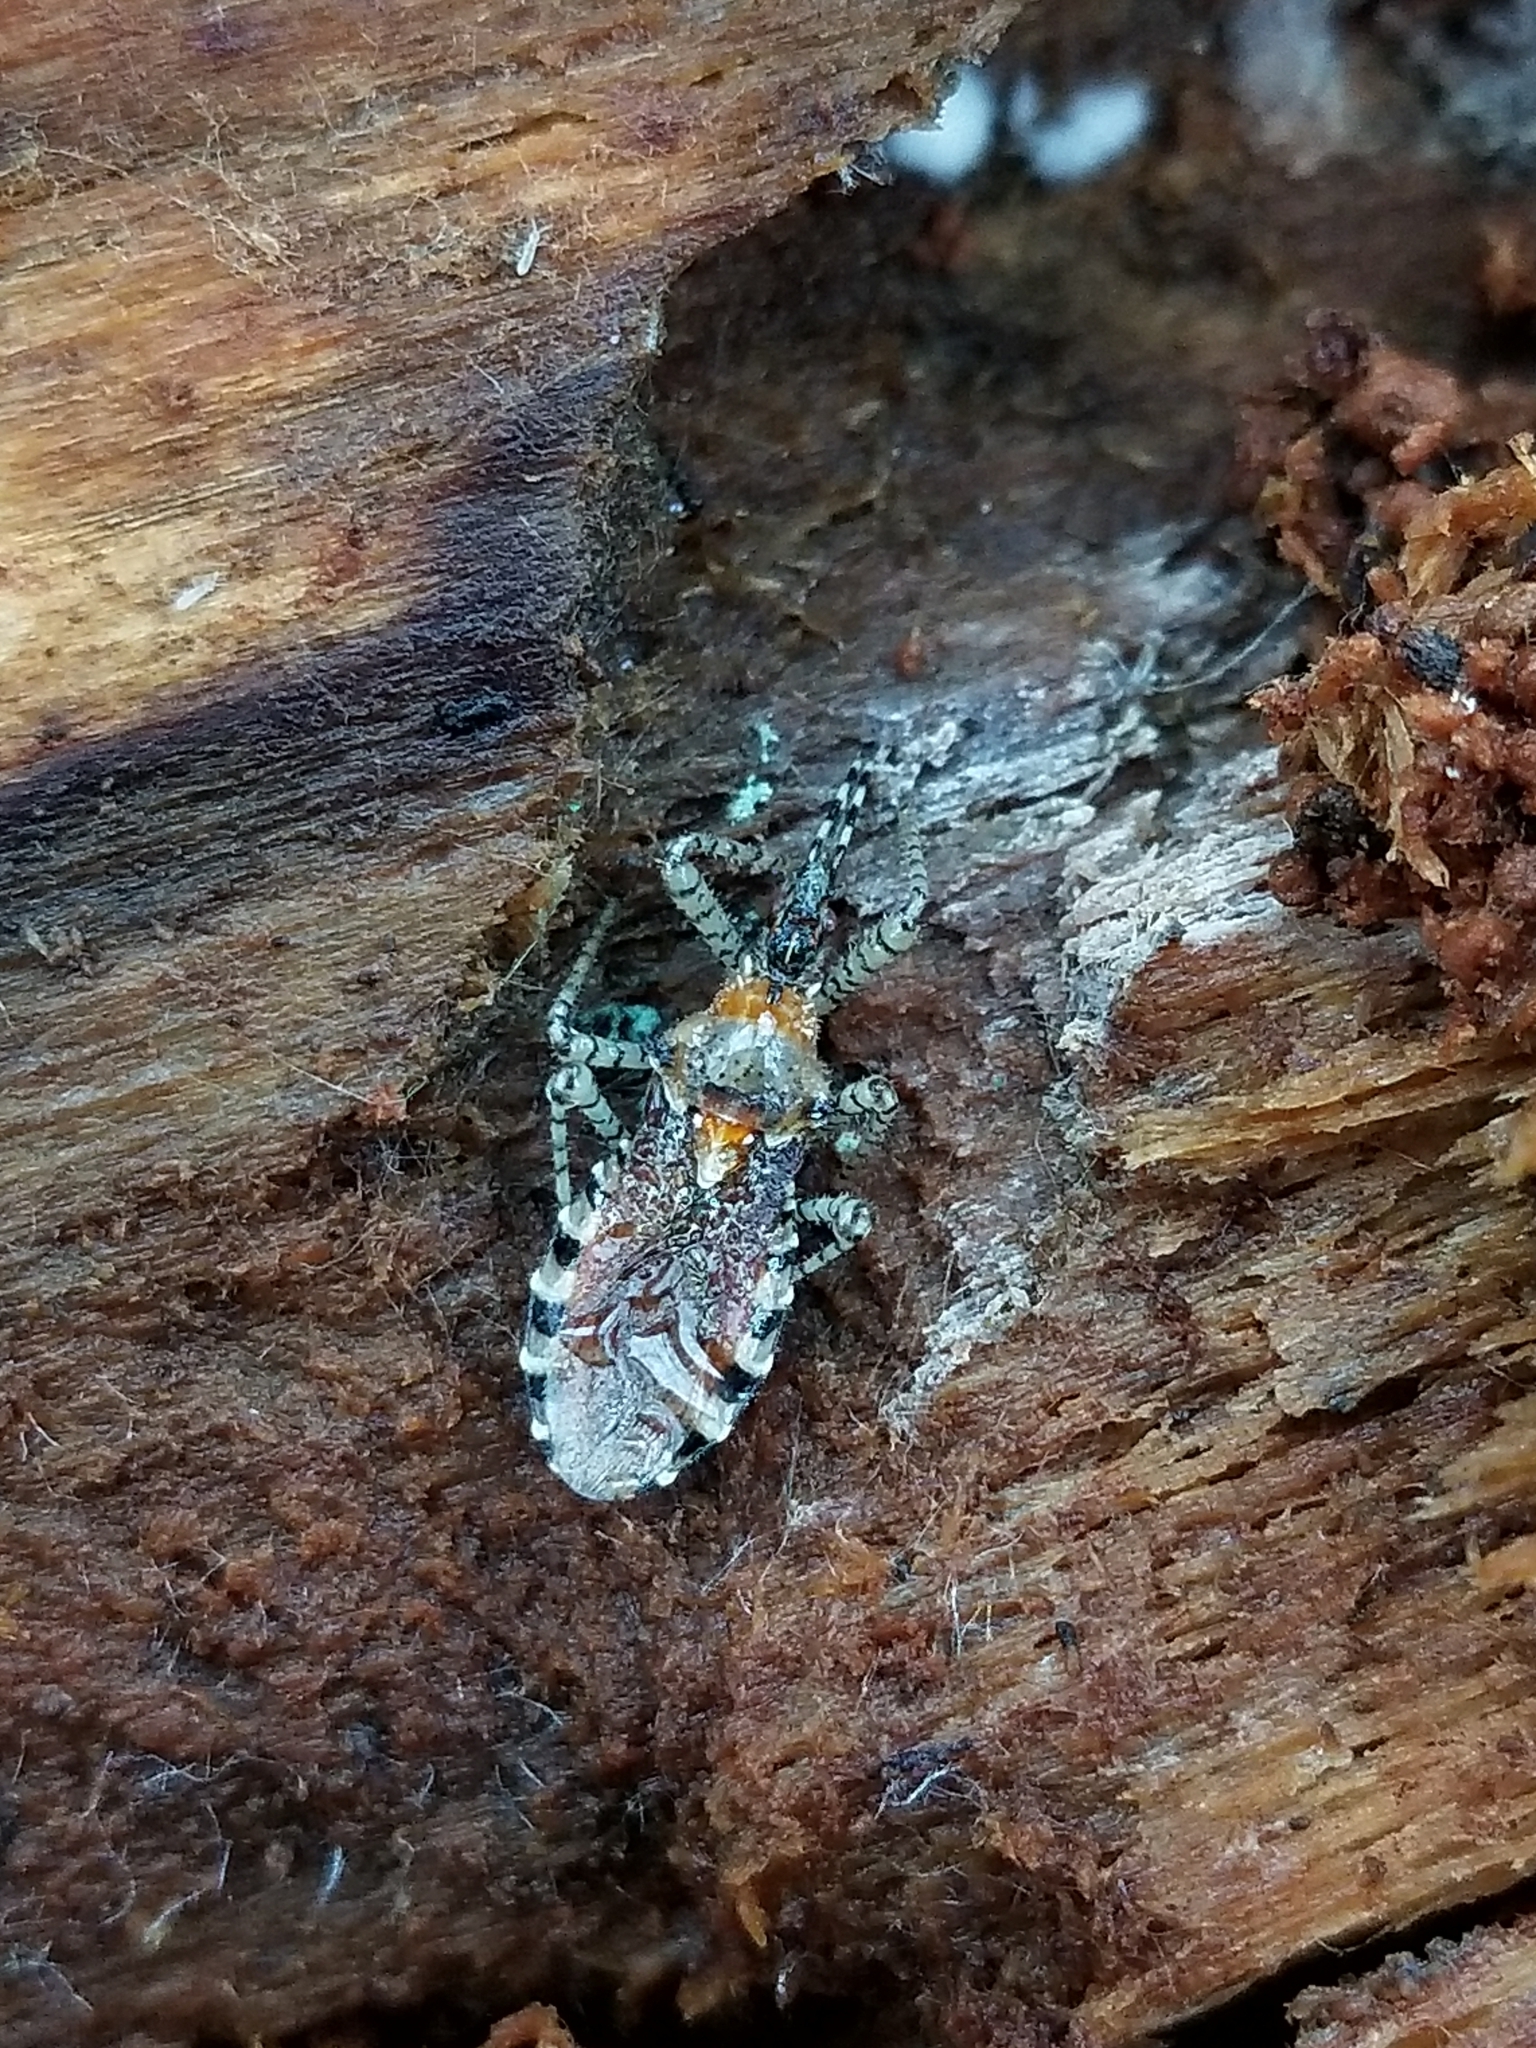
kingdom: Animalia
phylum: Arthropoda
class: Insecta
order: Hemiptera
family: Reduviidae
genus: Pselliopus
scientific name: Pselliopus spinicollis
